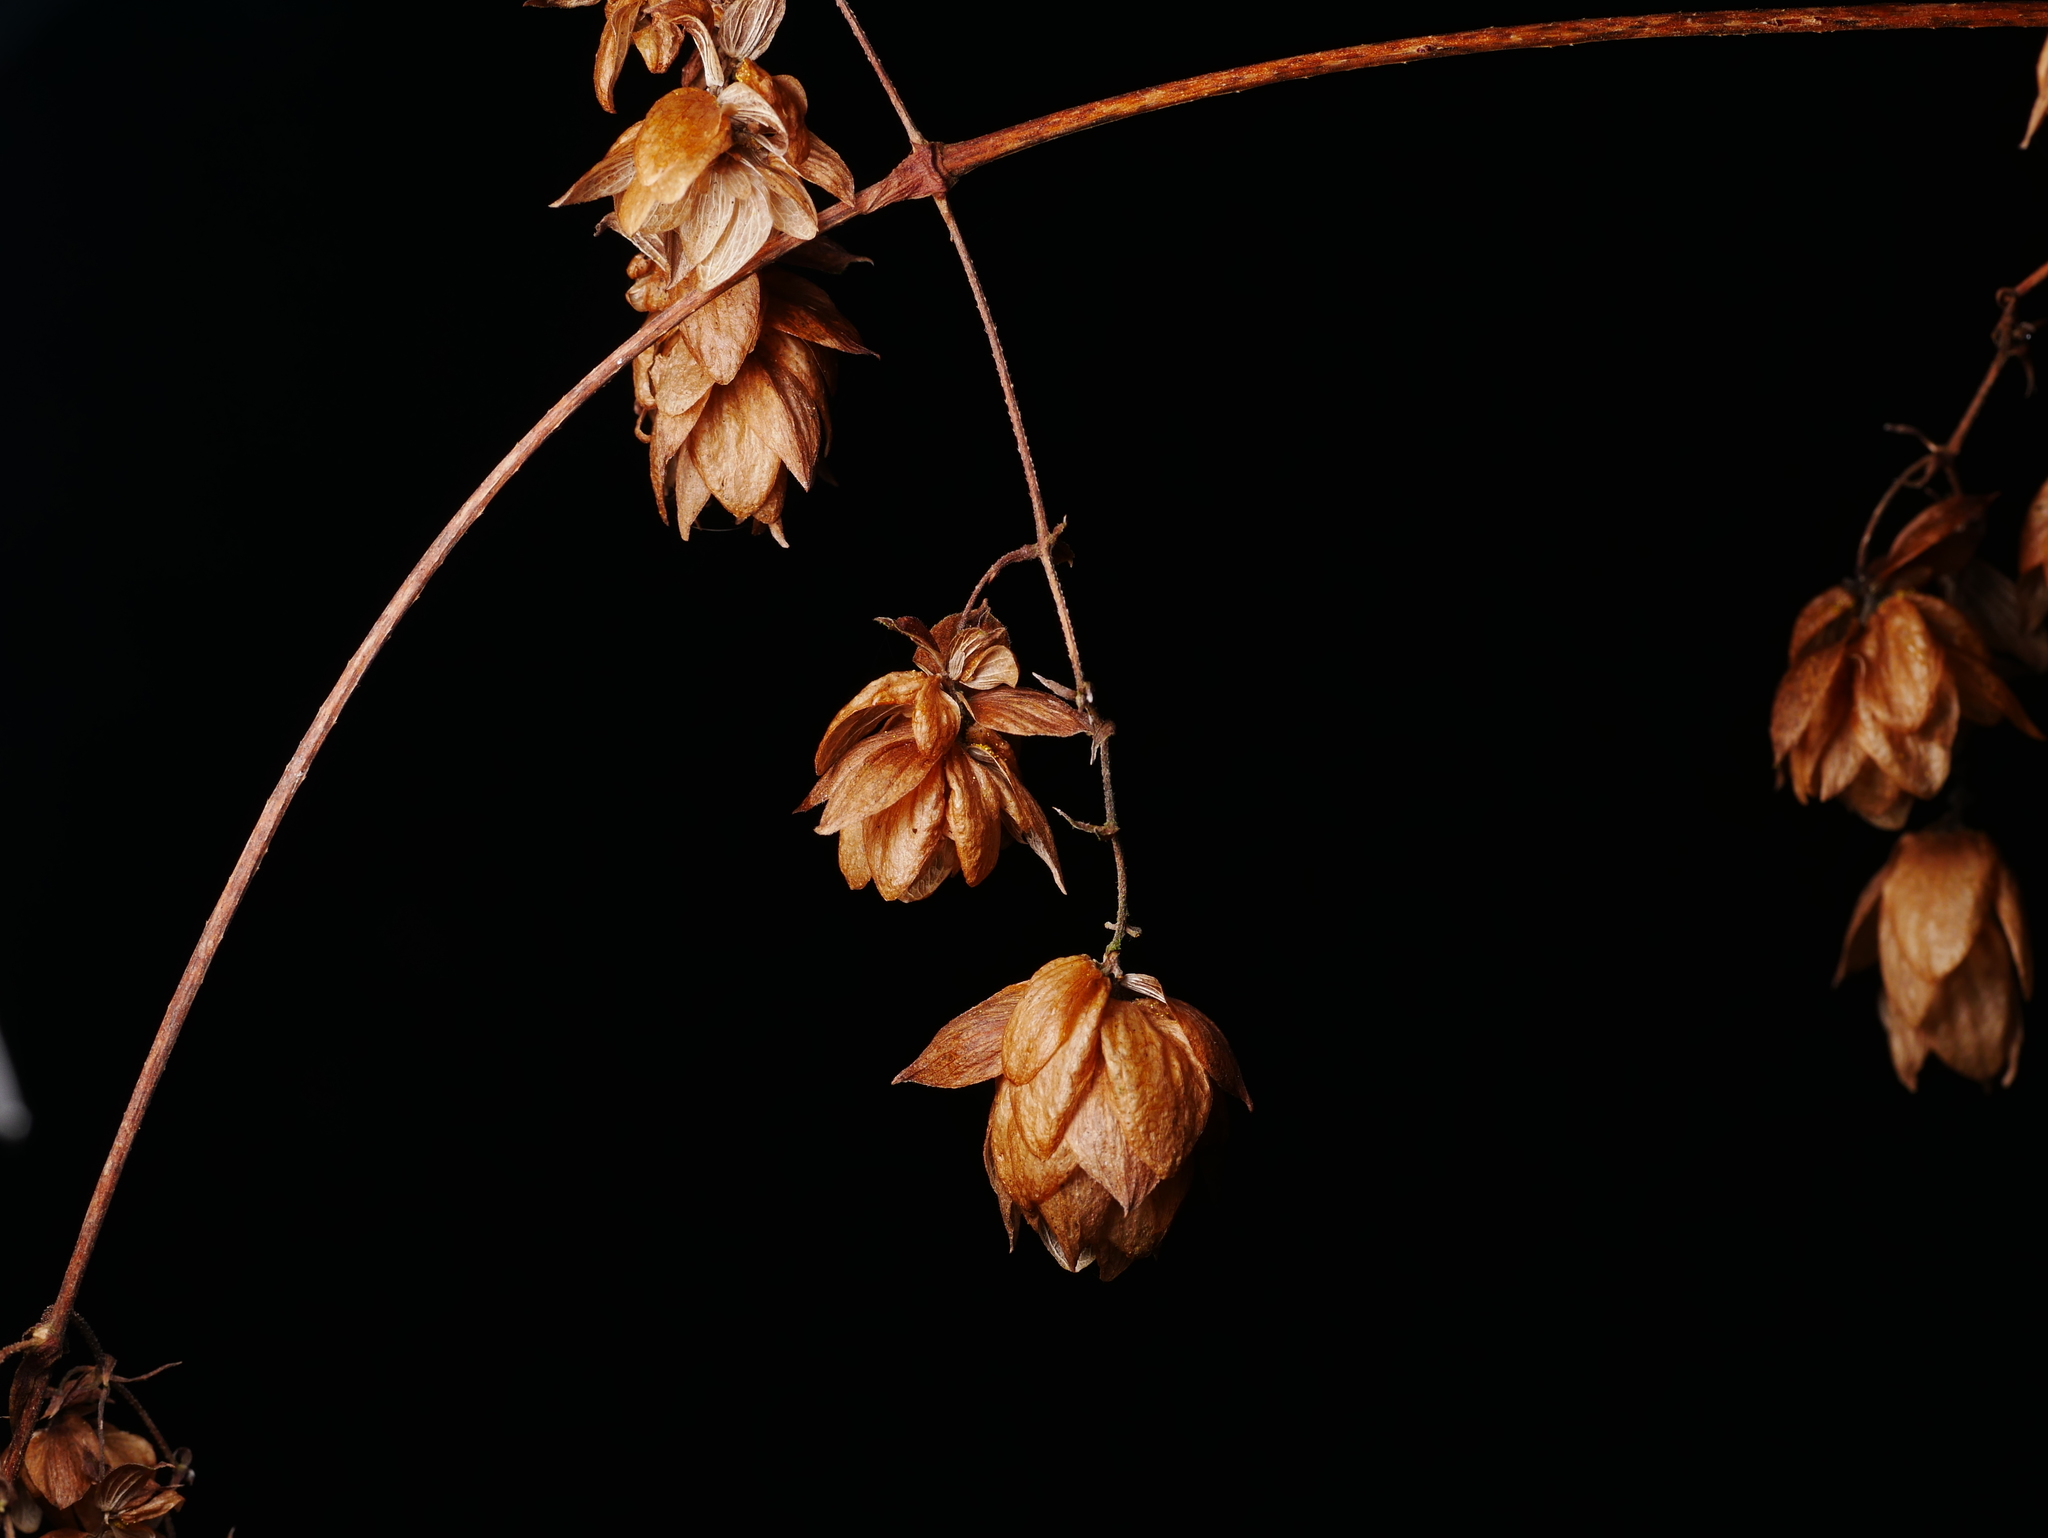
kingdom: Plantae
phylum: Tracheophyta
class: Magnoliopsida
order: Rosales
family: Cannabaceae
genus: Humulus
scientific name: Humulus lupulus
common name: Hop
